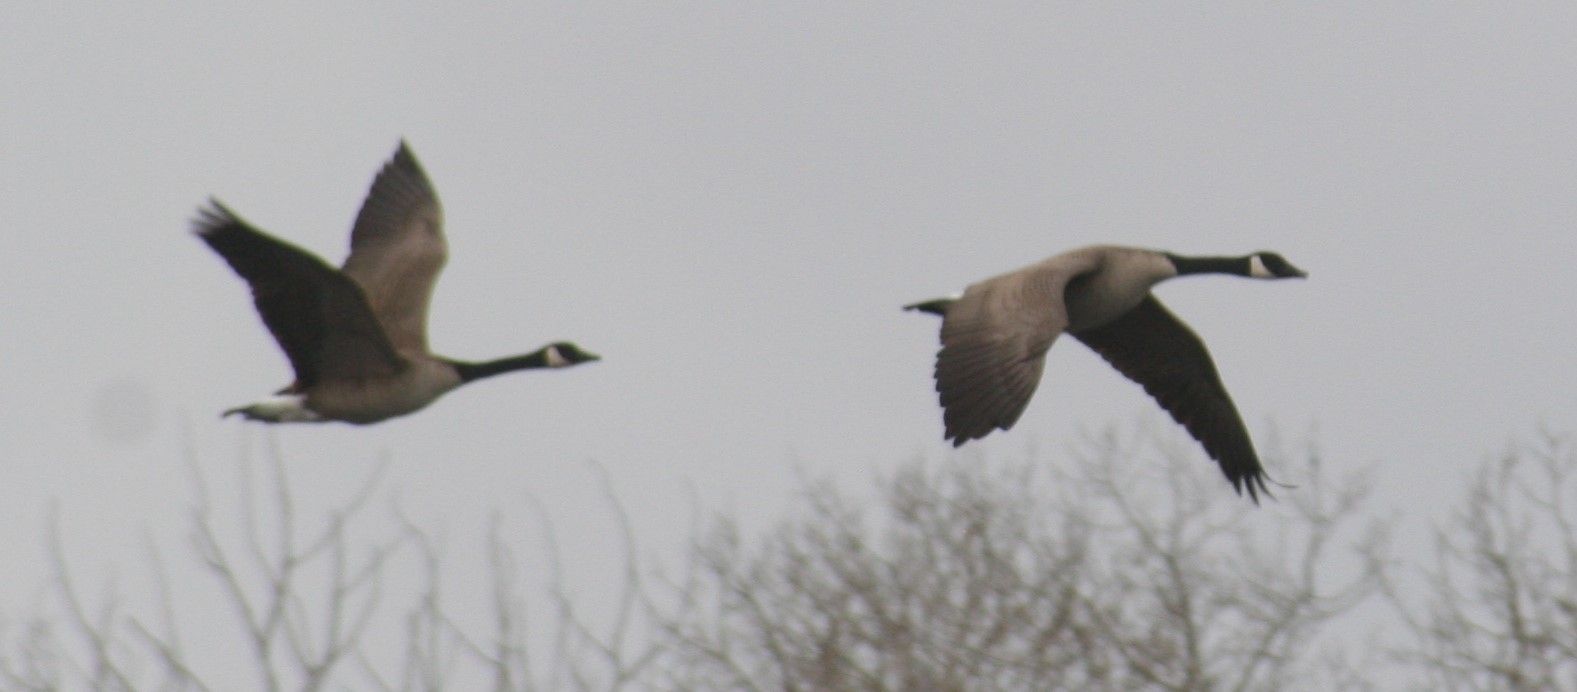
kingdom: Animalia
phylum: Chordata
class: Aves
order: Anseriformes
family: Anatidae
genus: Branta
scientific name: Branta canadensis
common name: Canada goose
